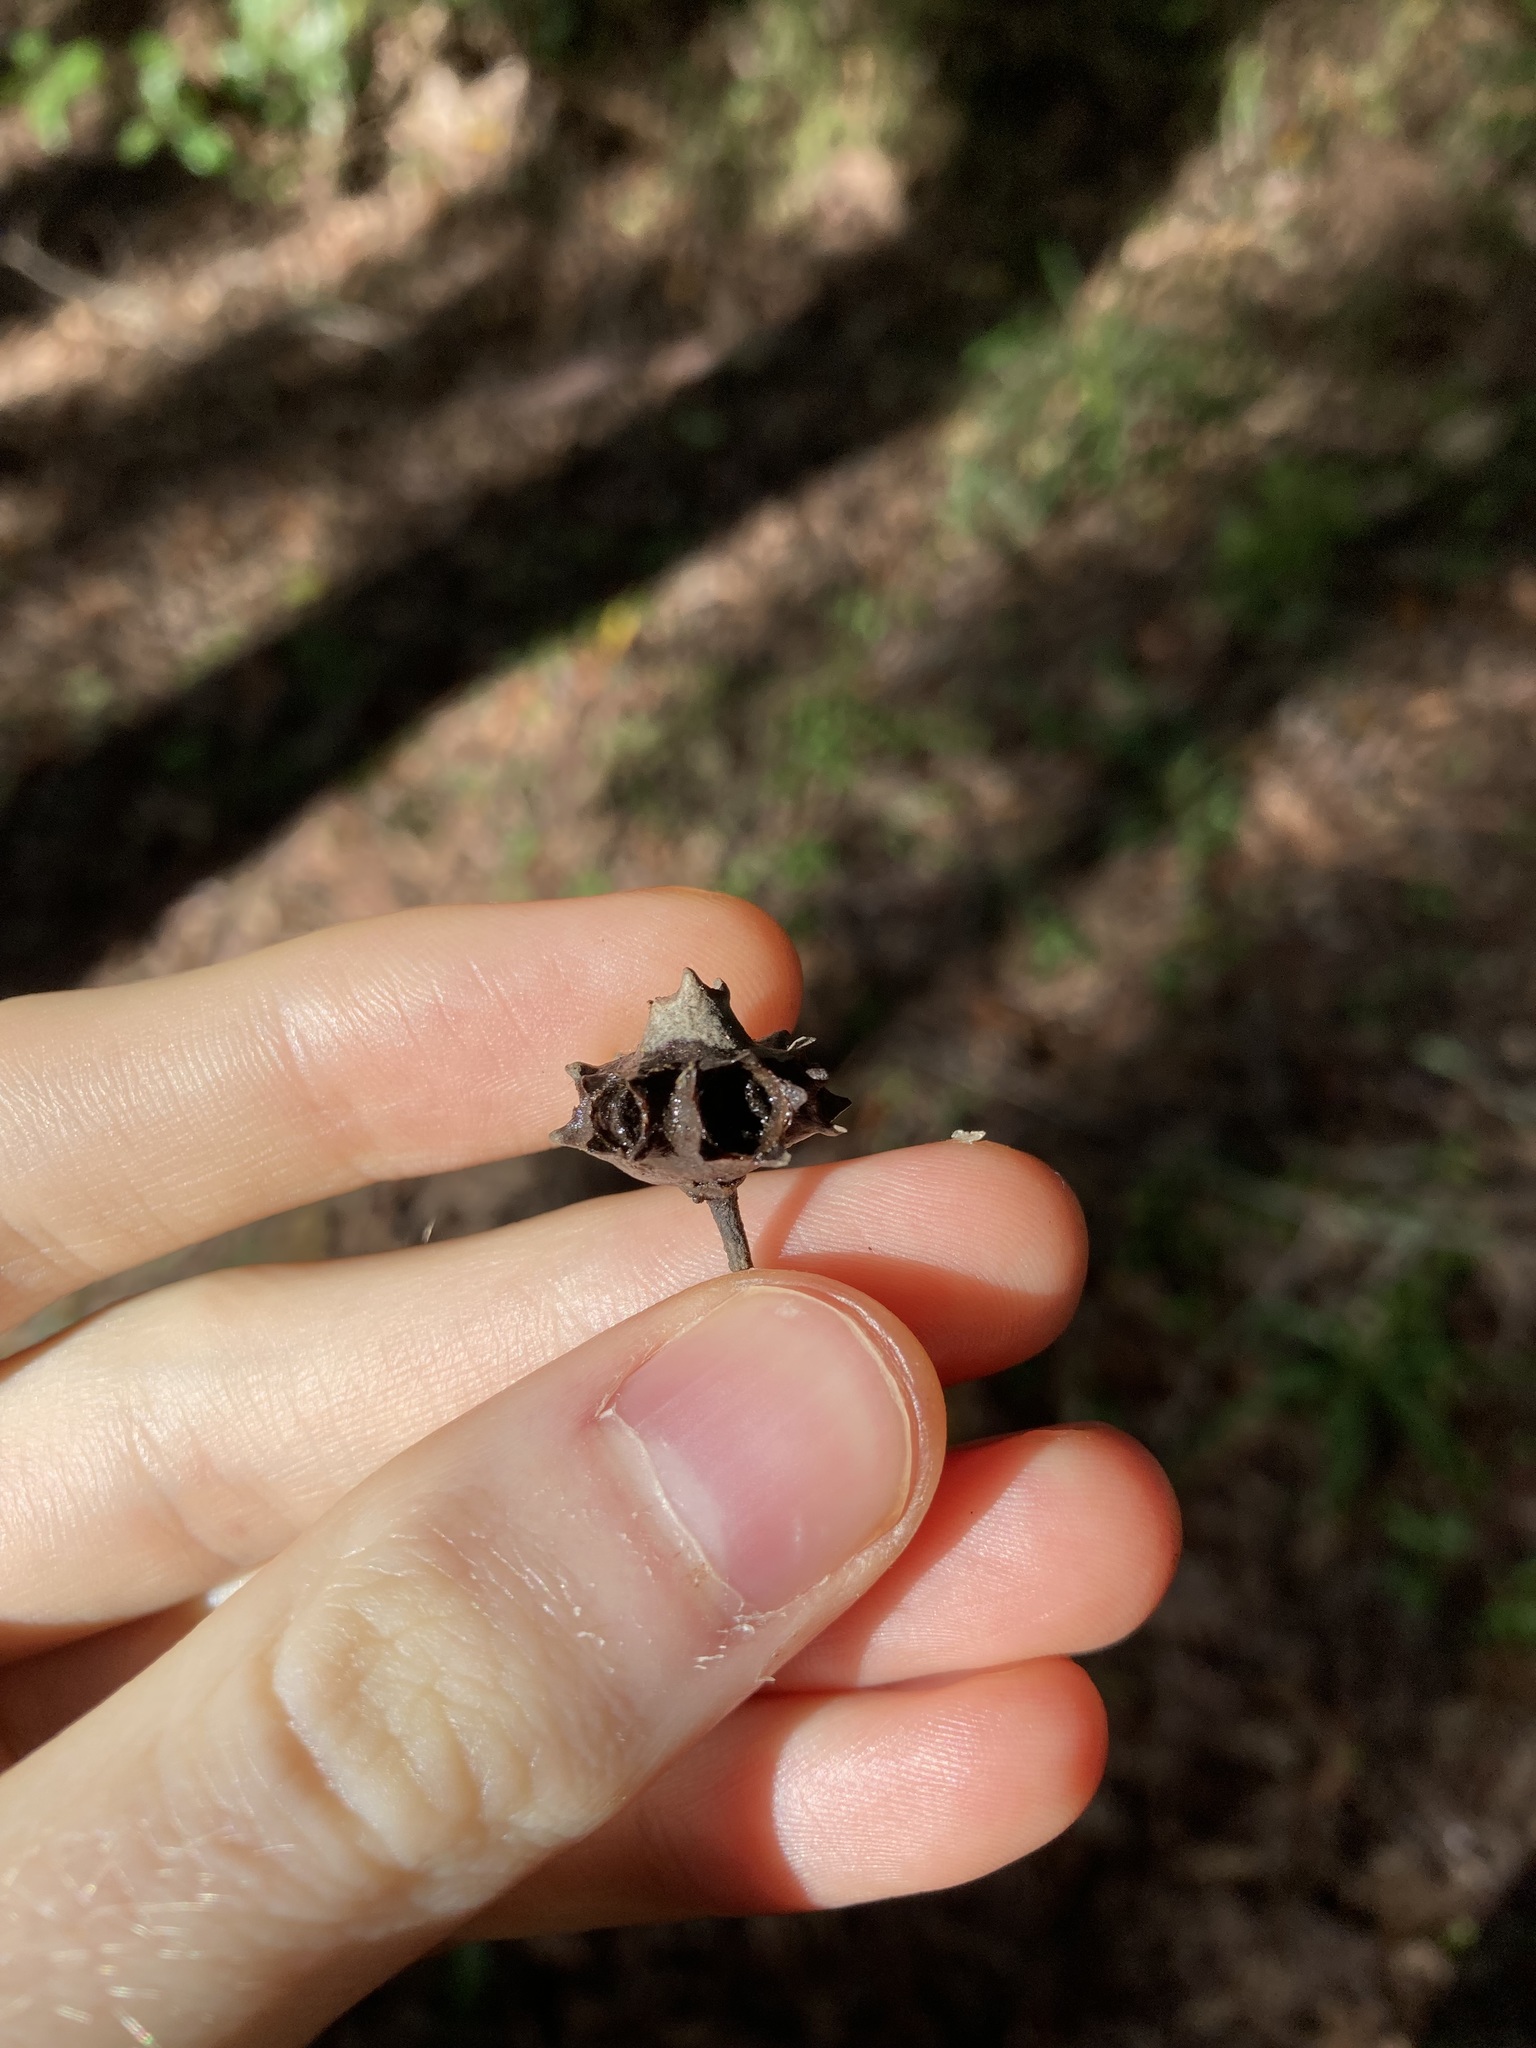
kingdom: Plantae
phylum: Tracheophyta
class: Magnoliopsida
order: Myrtales
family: Myrtaceae
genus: Syncarpia
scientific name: Syncarpia glomulifera
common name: Turpentine tree
